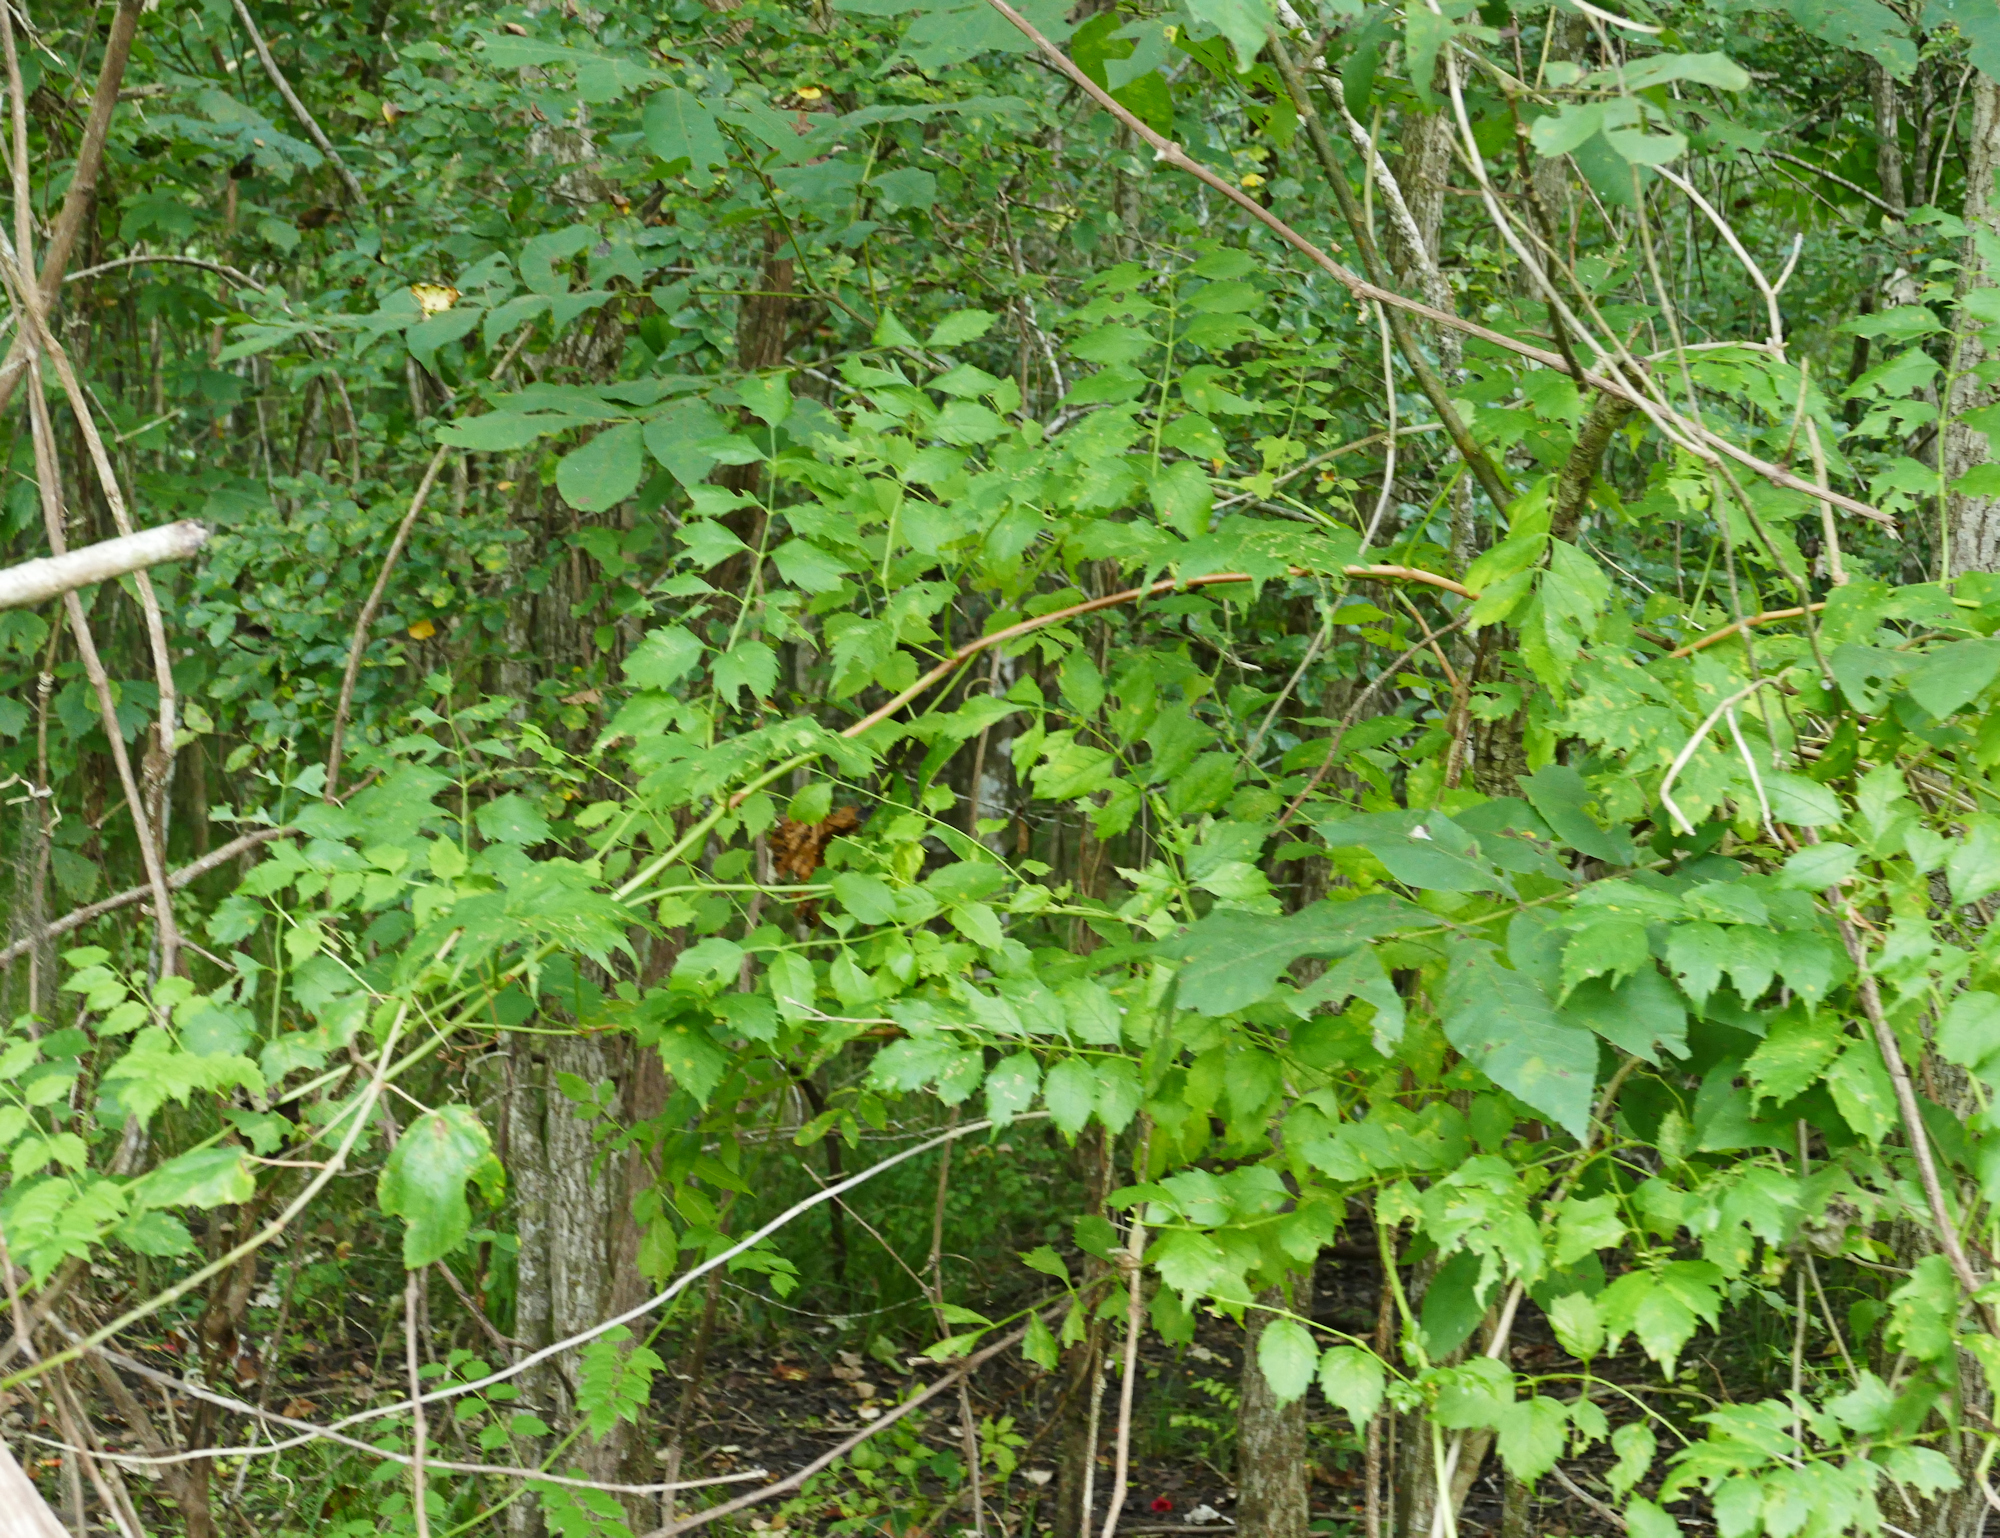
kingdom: Plantae
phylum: Tracheophyta
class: Magnoliopsida
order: Lamiales
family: Bignoniaceae
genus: Campsis
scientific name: Campsis radicans
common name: Trumpet-creeper
